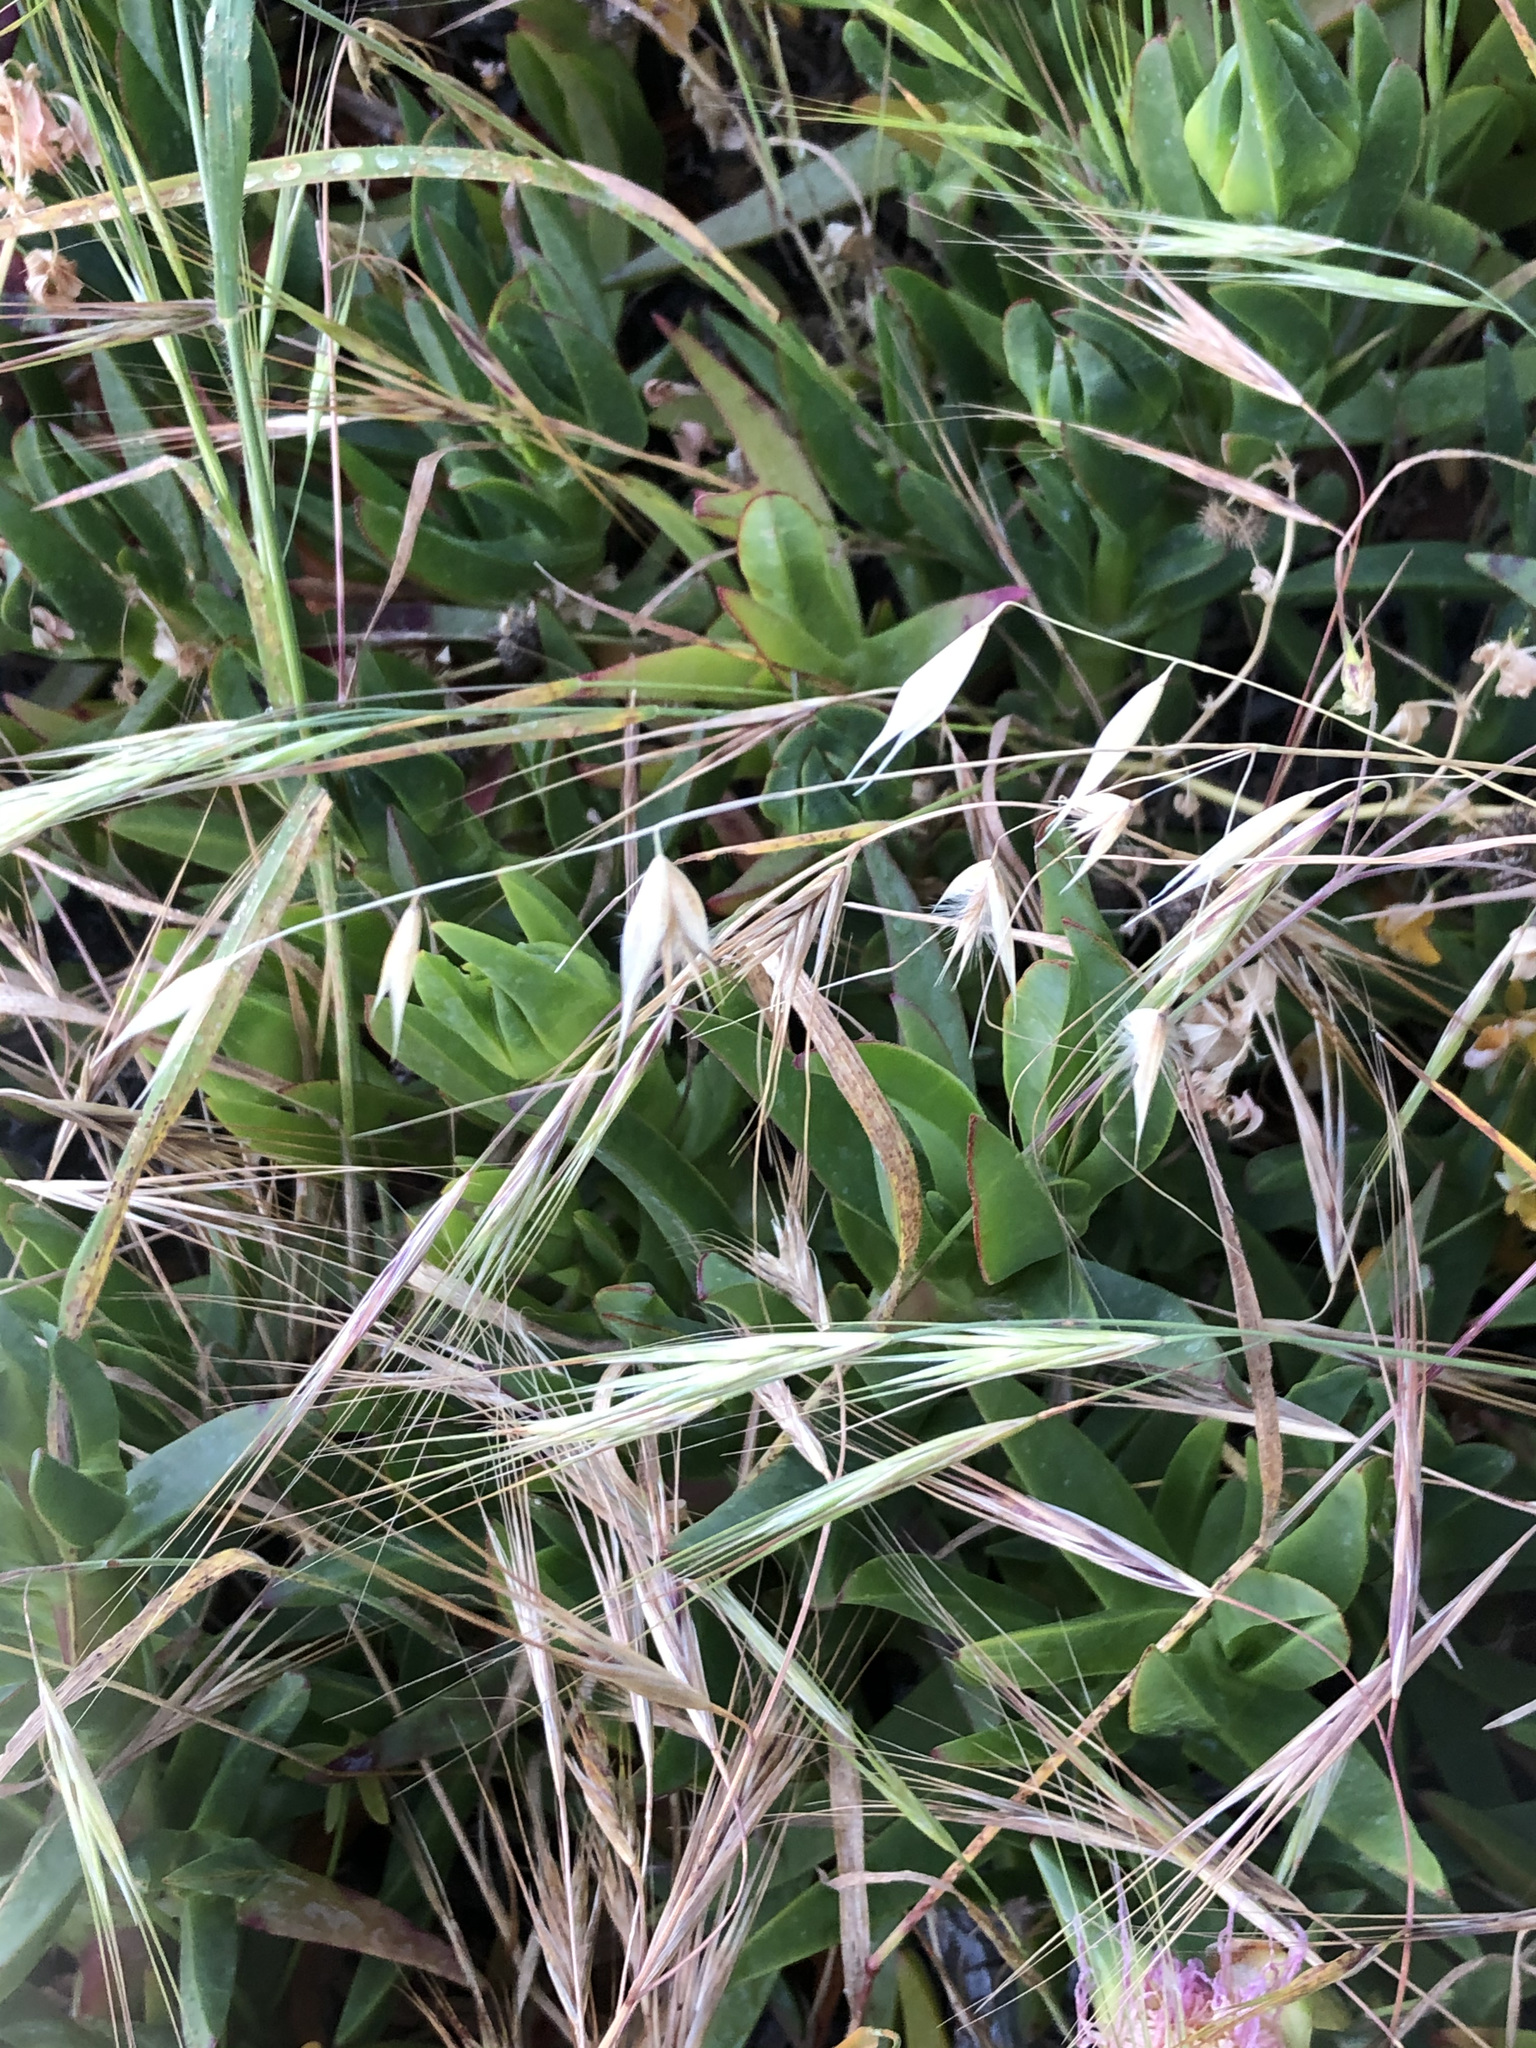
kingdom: Plantae
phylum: Tracheophyta
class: Liliopsida
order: Poales
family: Poaceae
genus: Avena
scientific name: Avena barbata
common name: Slender oat
